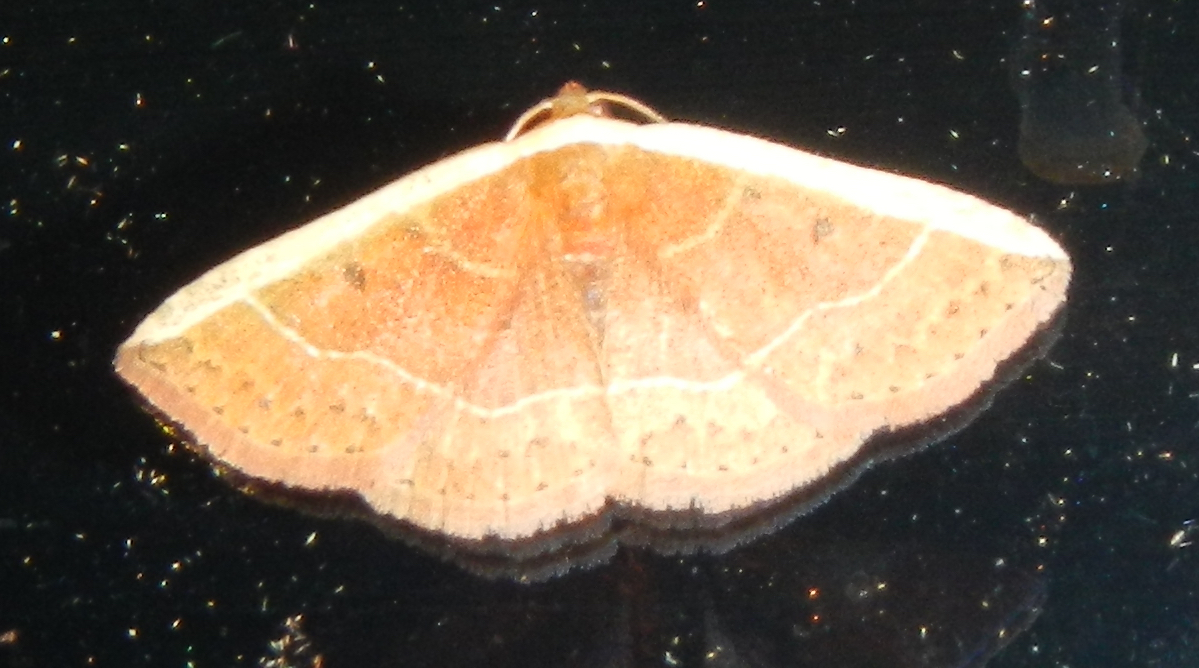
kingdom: Animalia
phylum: Arthropoda
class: Insecta
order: Lepidoptera
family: Noctuidae
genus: Ozarba
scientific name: Ozarba albocostaliata
